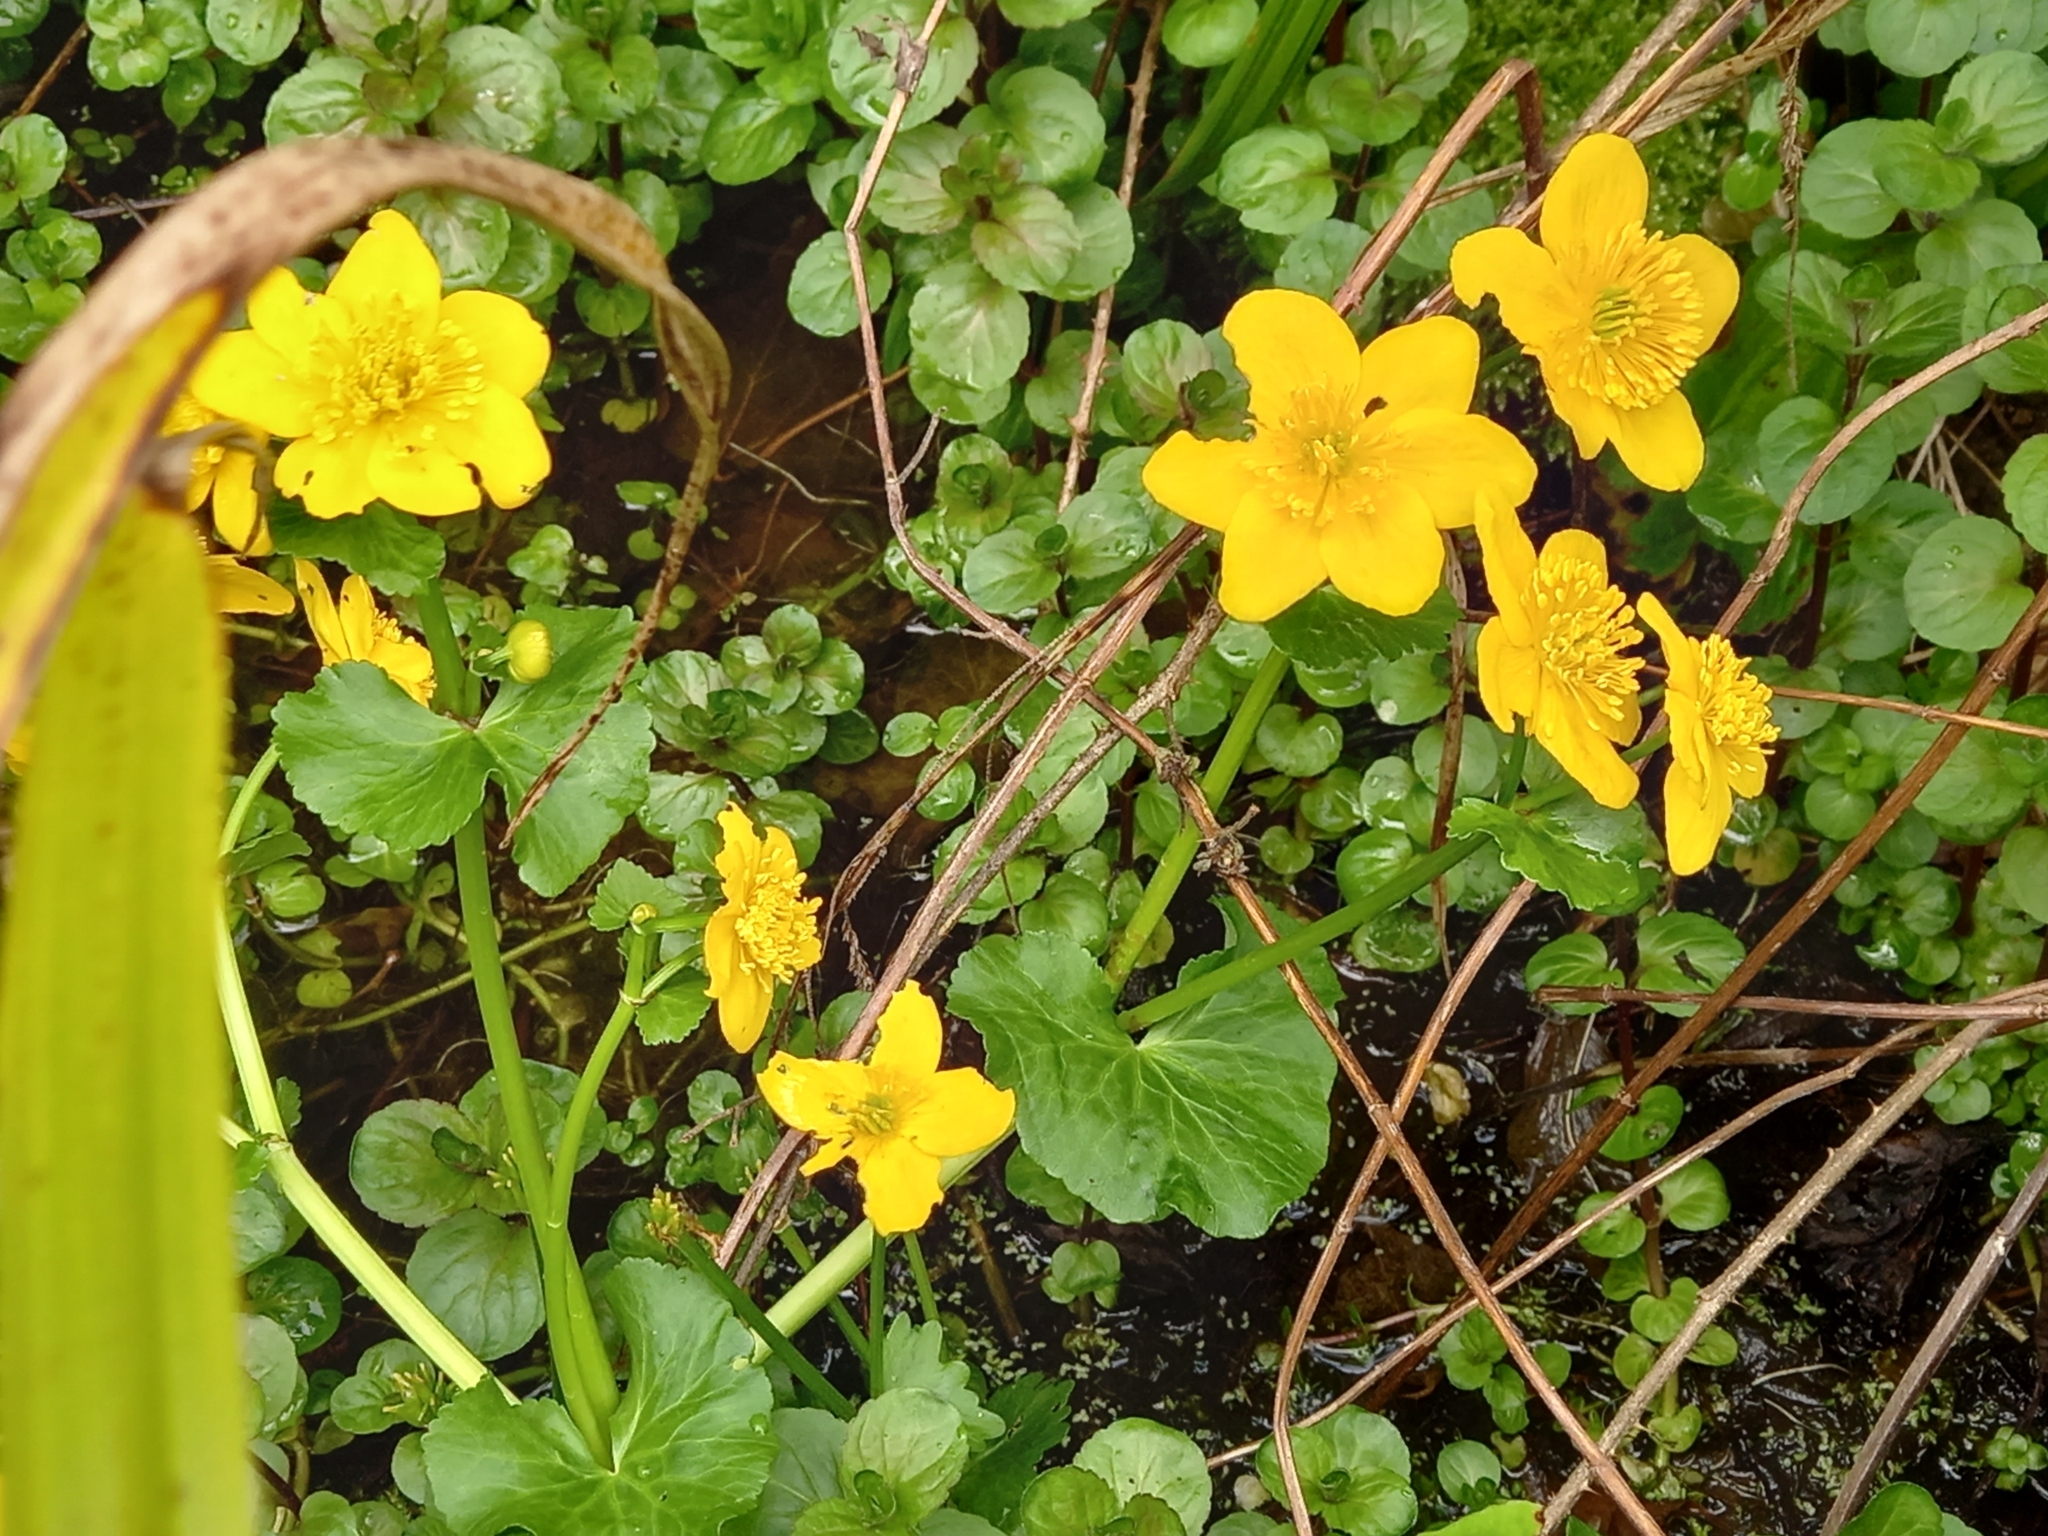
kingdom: Plantae
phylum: Tracheophyta
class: Magnoliopsida
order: Ranunculales
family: Ranunculaceae
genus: Caltha
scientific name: Caltha palustris
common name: Marsh marigold
